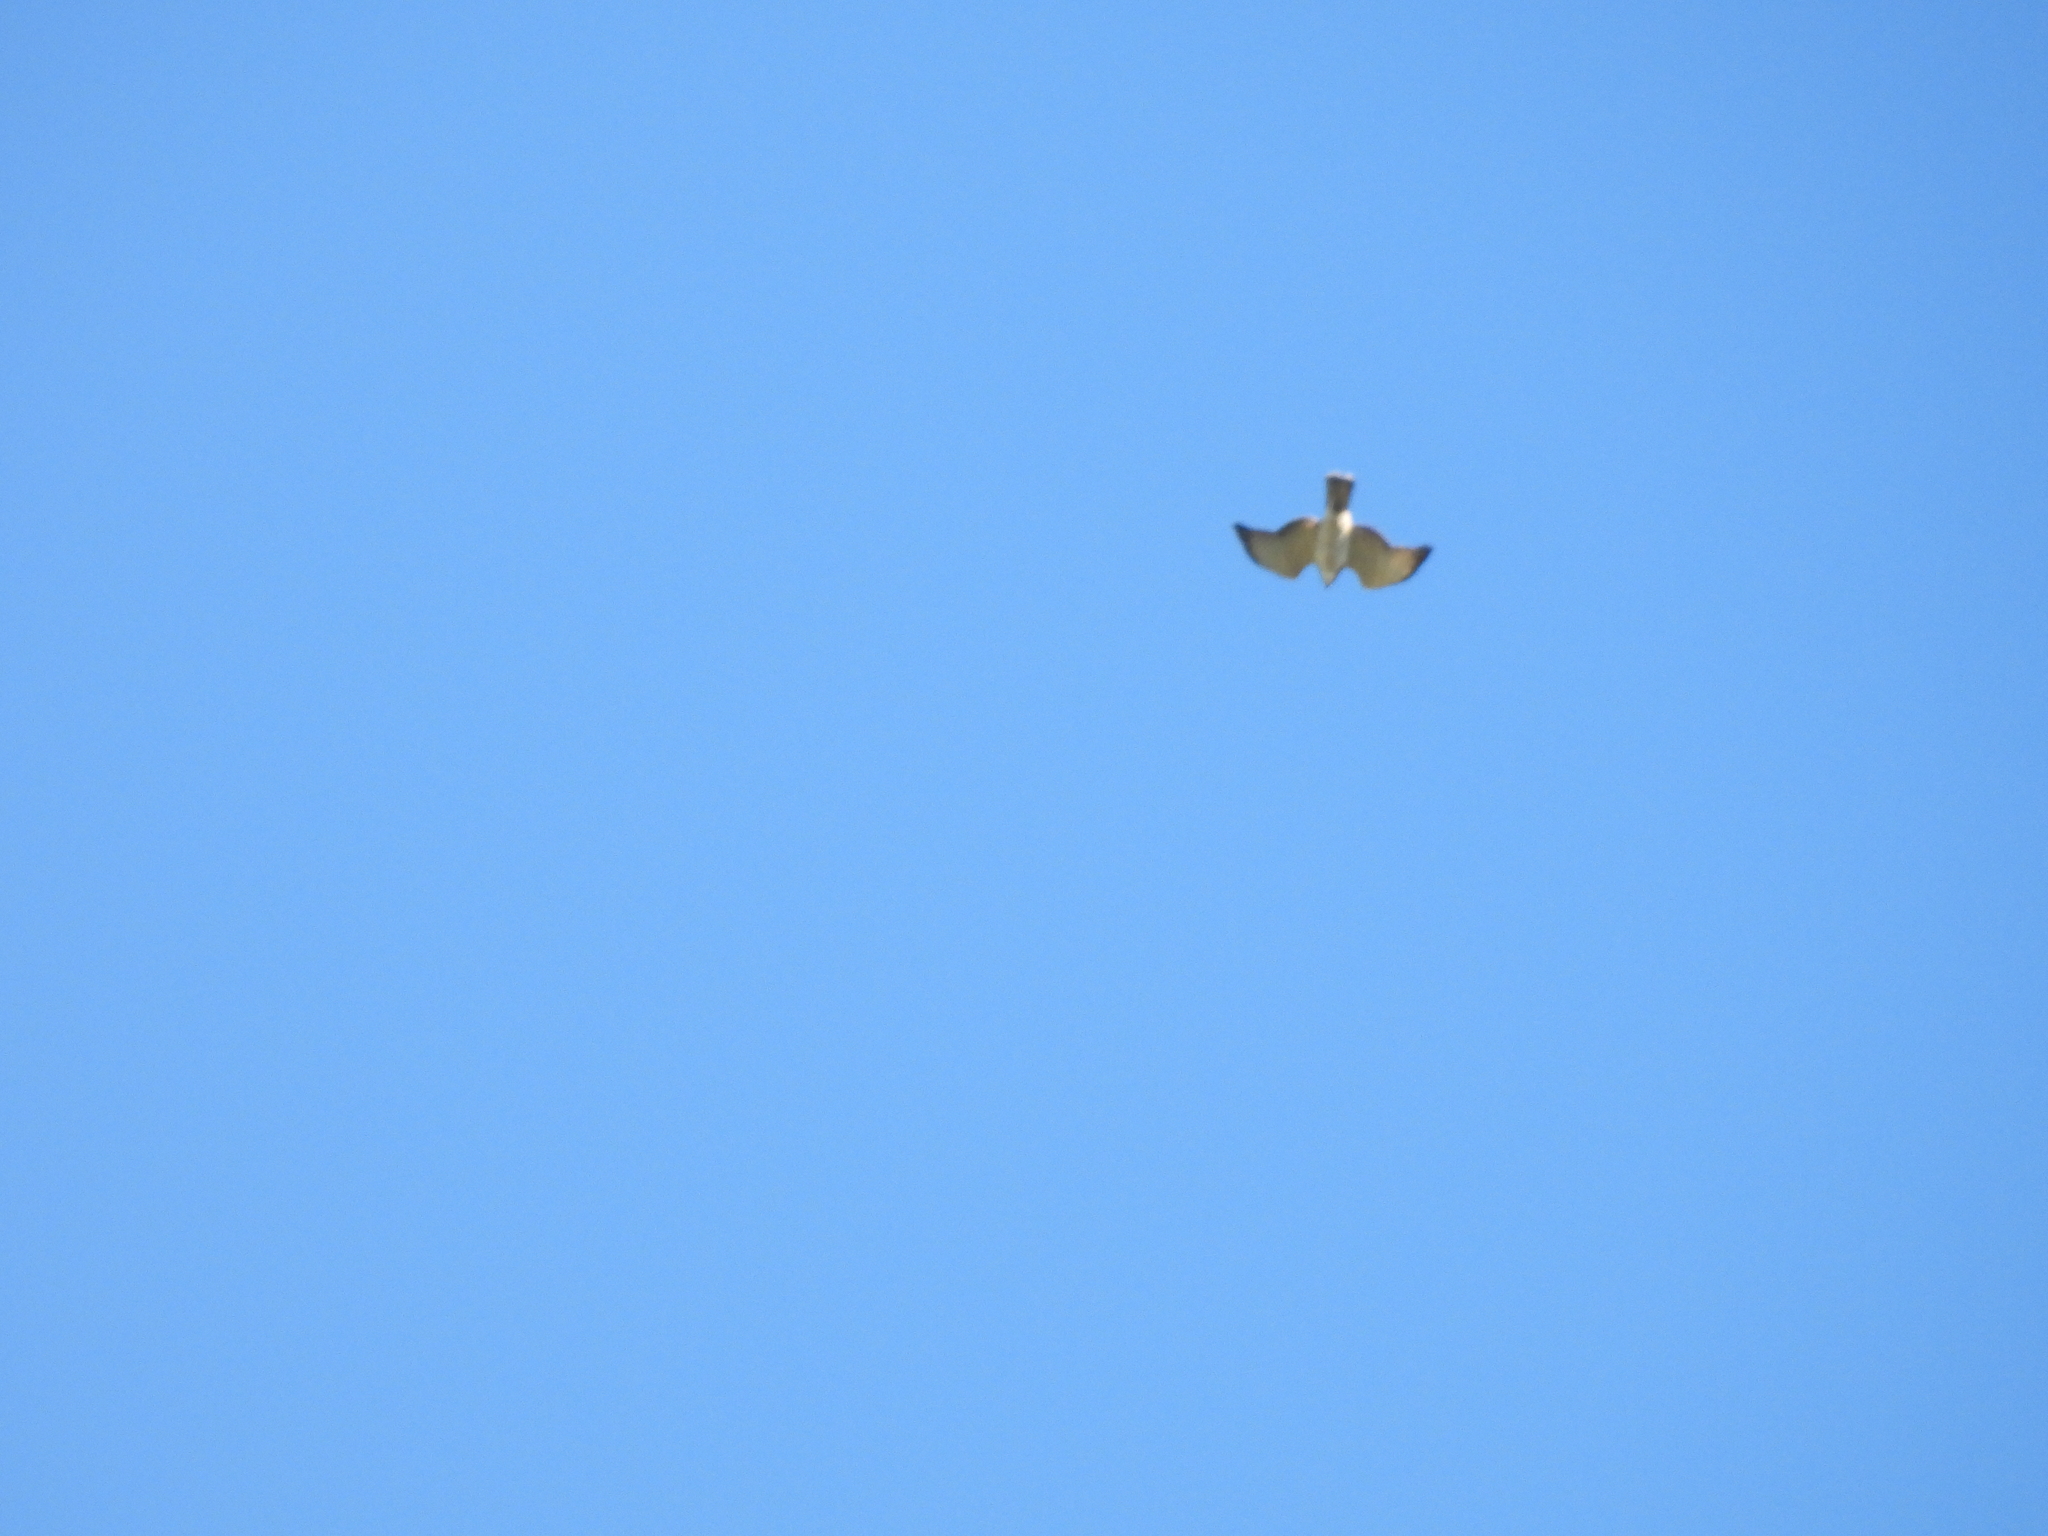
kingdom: Animalia
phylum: Chordata
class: Aves
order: Accipitriformes
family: Accipitridae
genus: Buteo
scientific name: Buteo platypterus
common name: Broad-winged hawk
